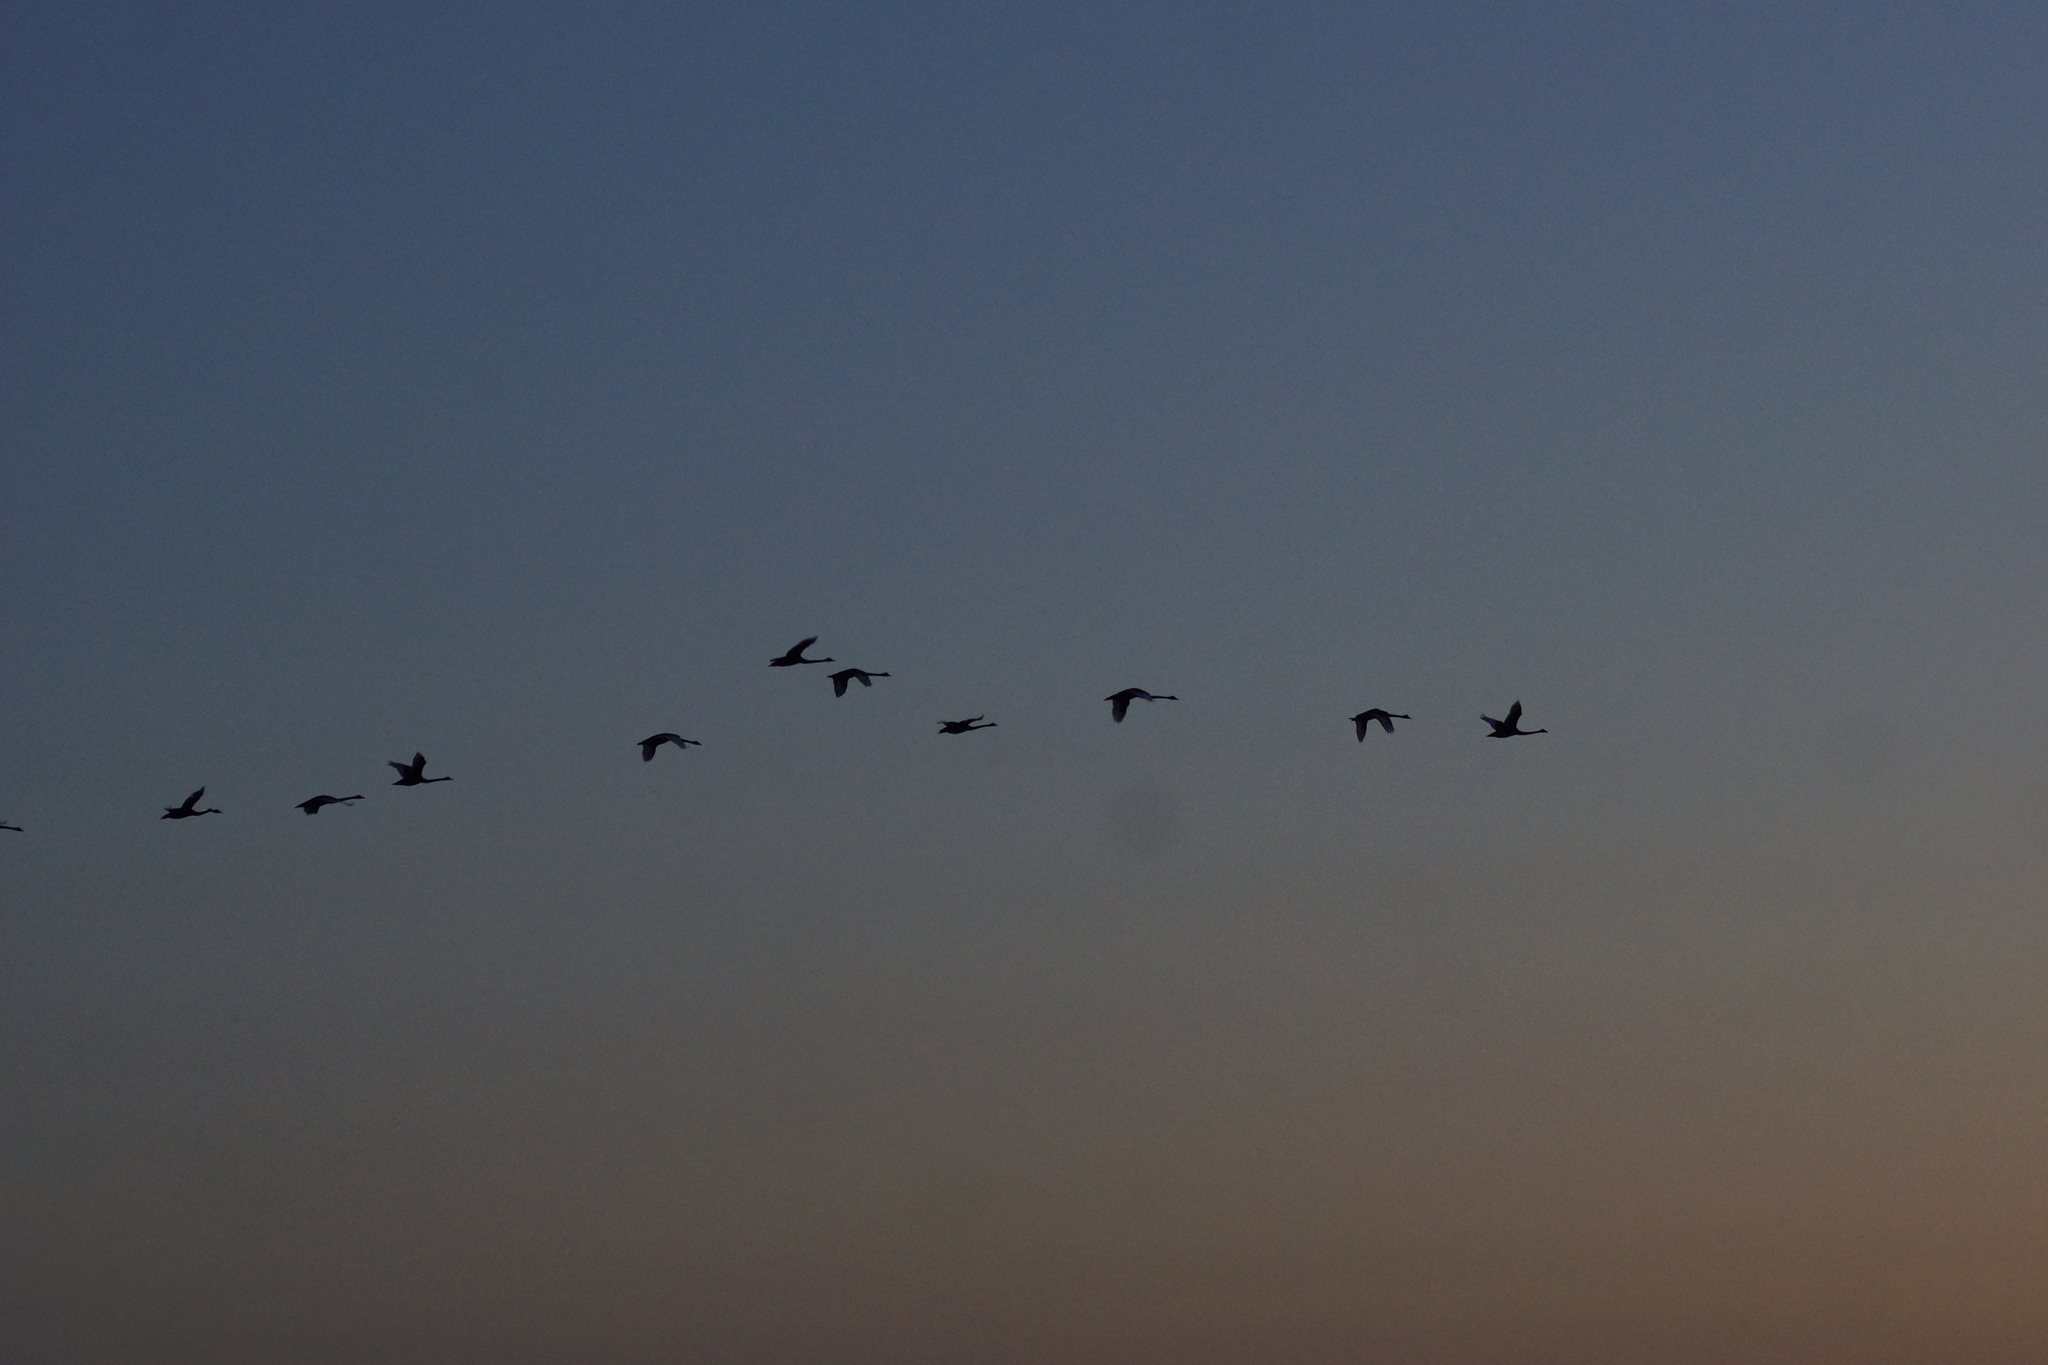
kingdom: Animalia
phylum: Chordata
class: Aves
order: Anseriformes
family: Anatidae
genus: Cygnus
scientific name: Cygnus atratus
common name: Black swan
